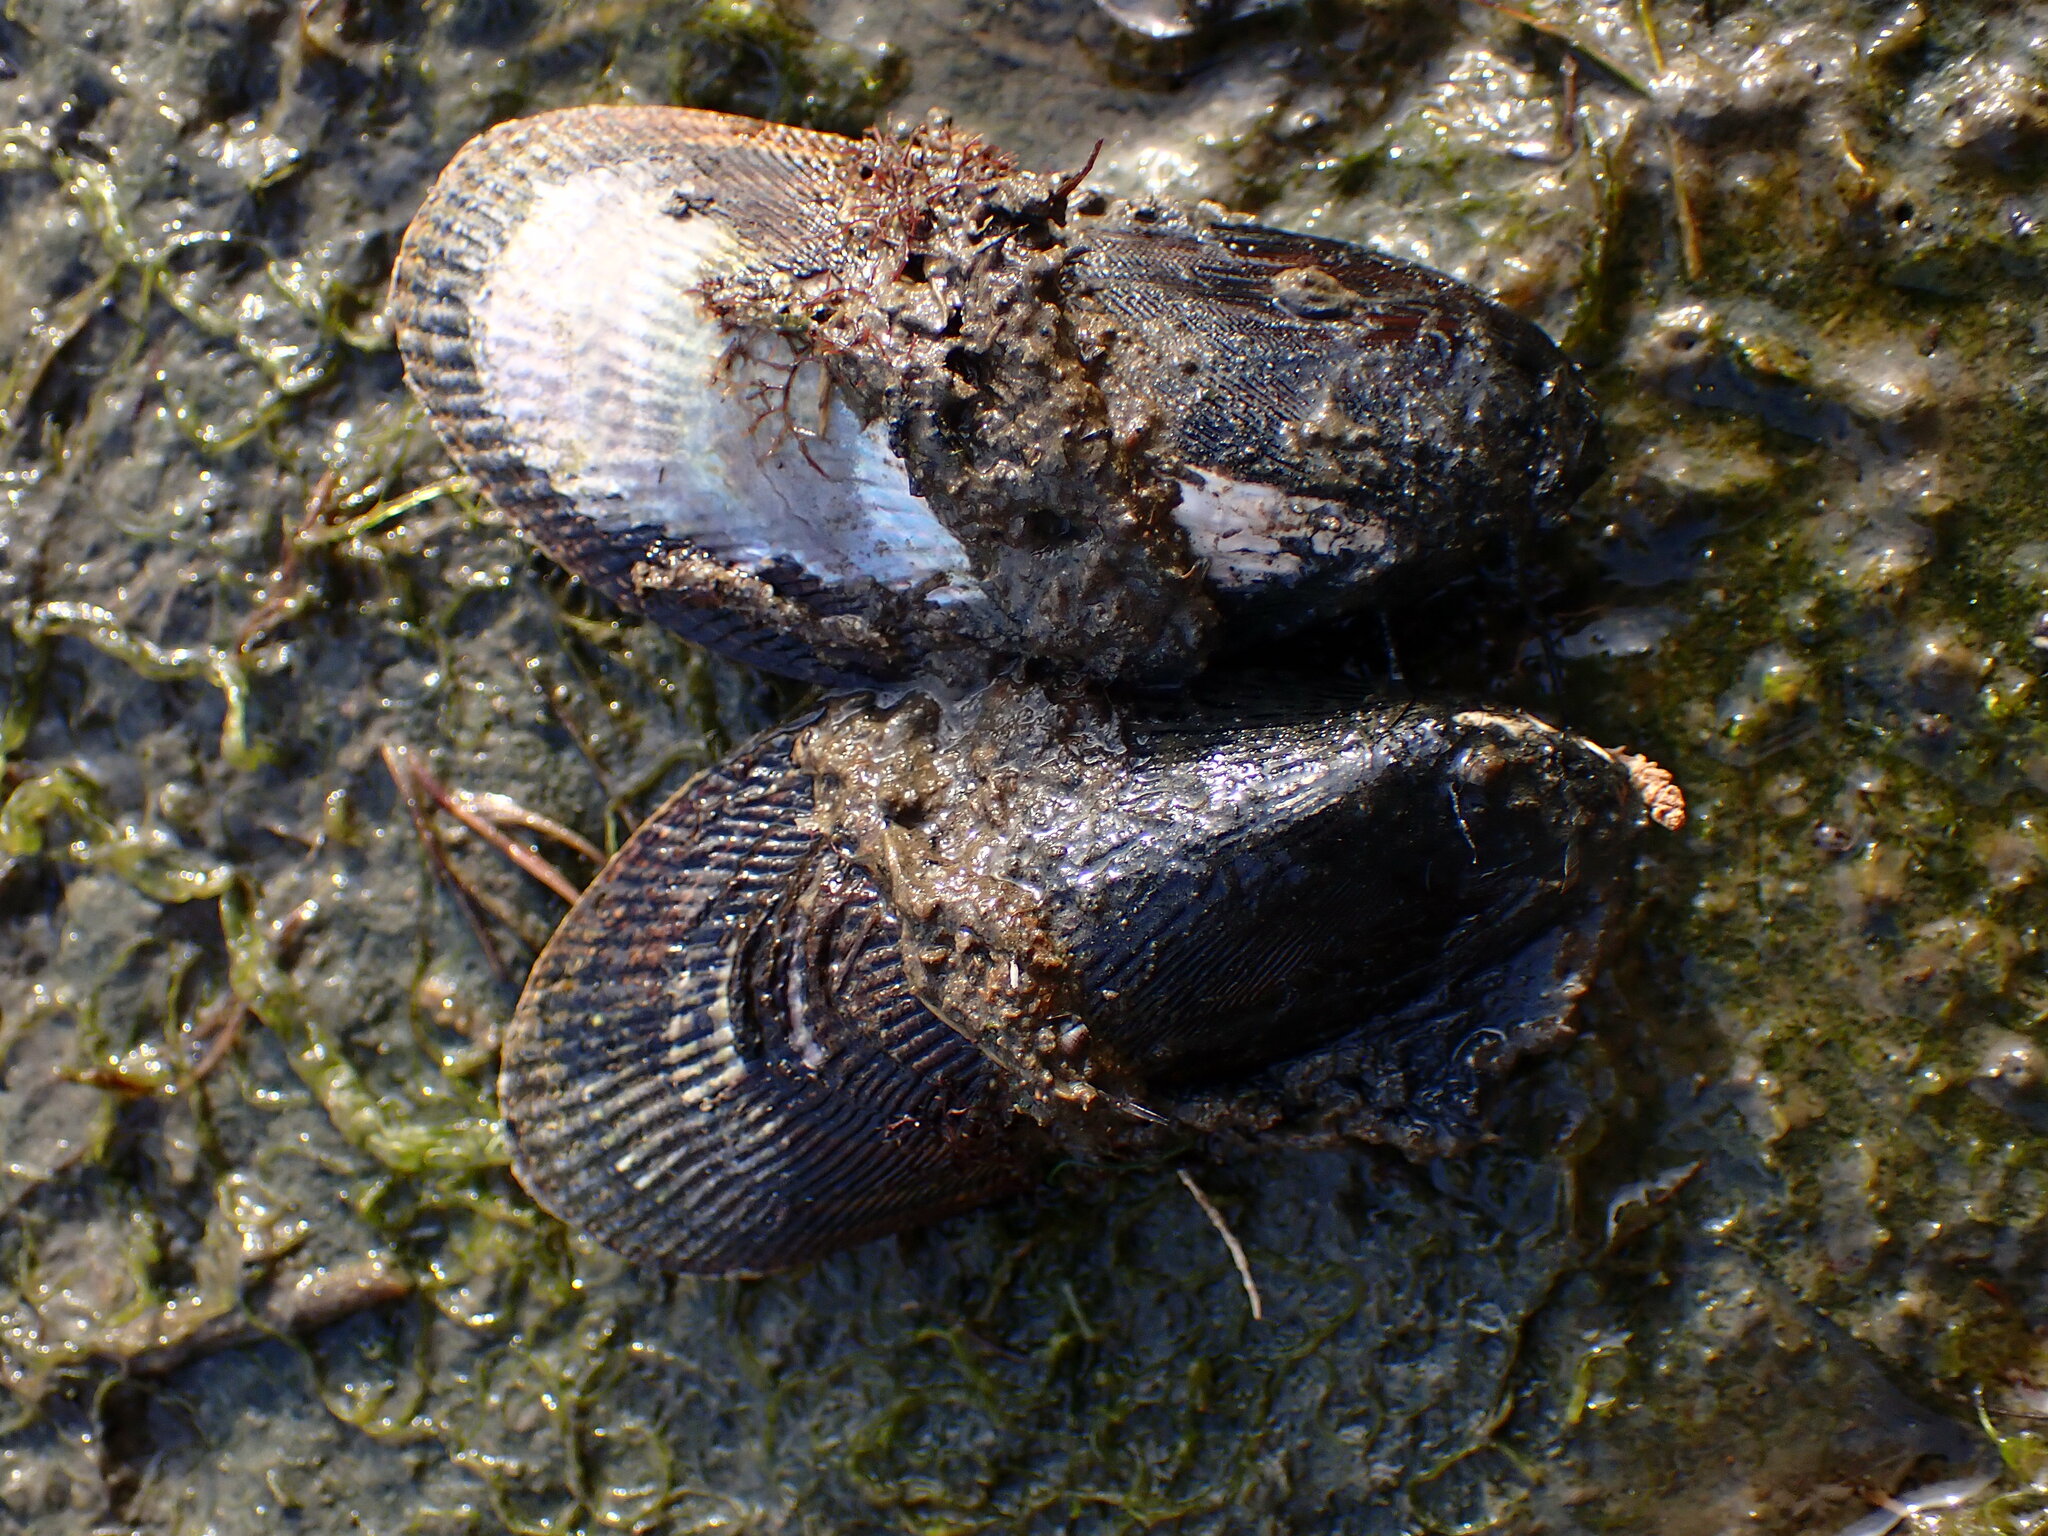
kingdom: Animalia
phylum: Mollusca
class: Bivalvia
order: Mytilida
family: Mytilidae
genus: Geukensia
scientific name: Geukensia demissa
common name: Ribbed mussel
